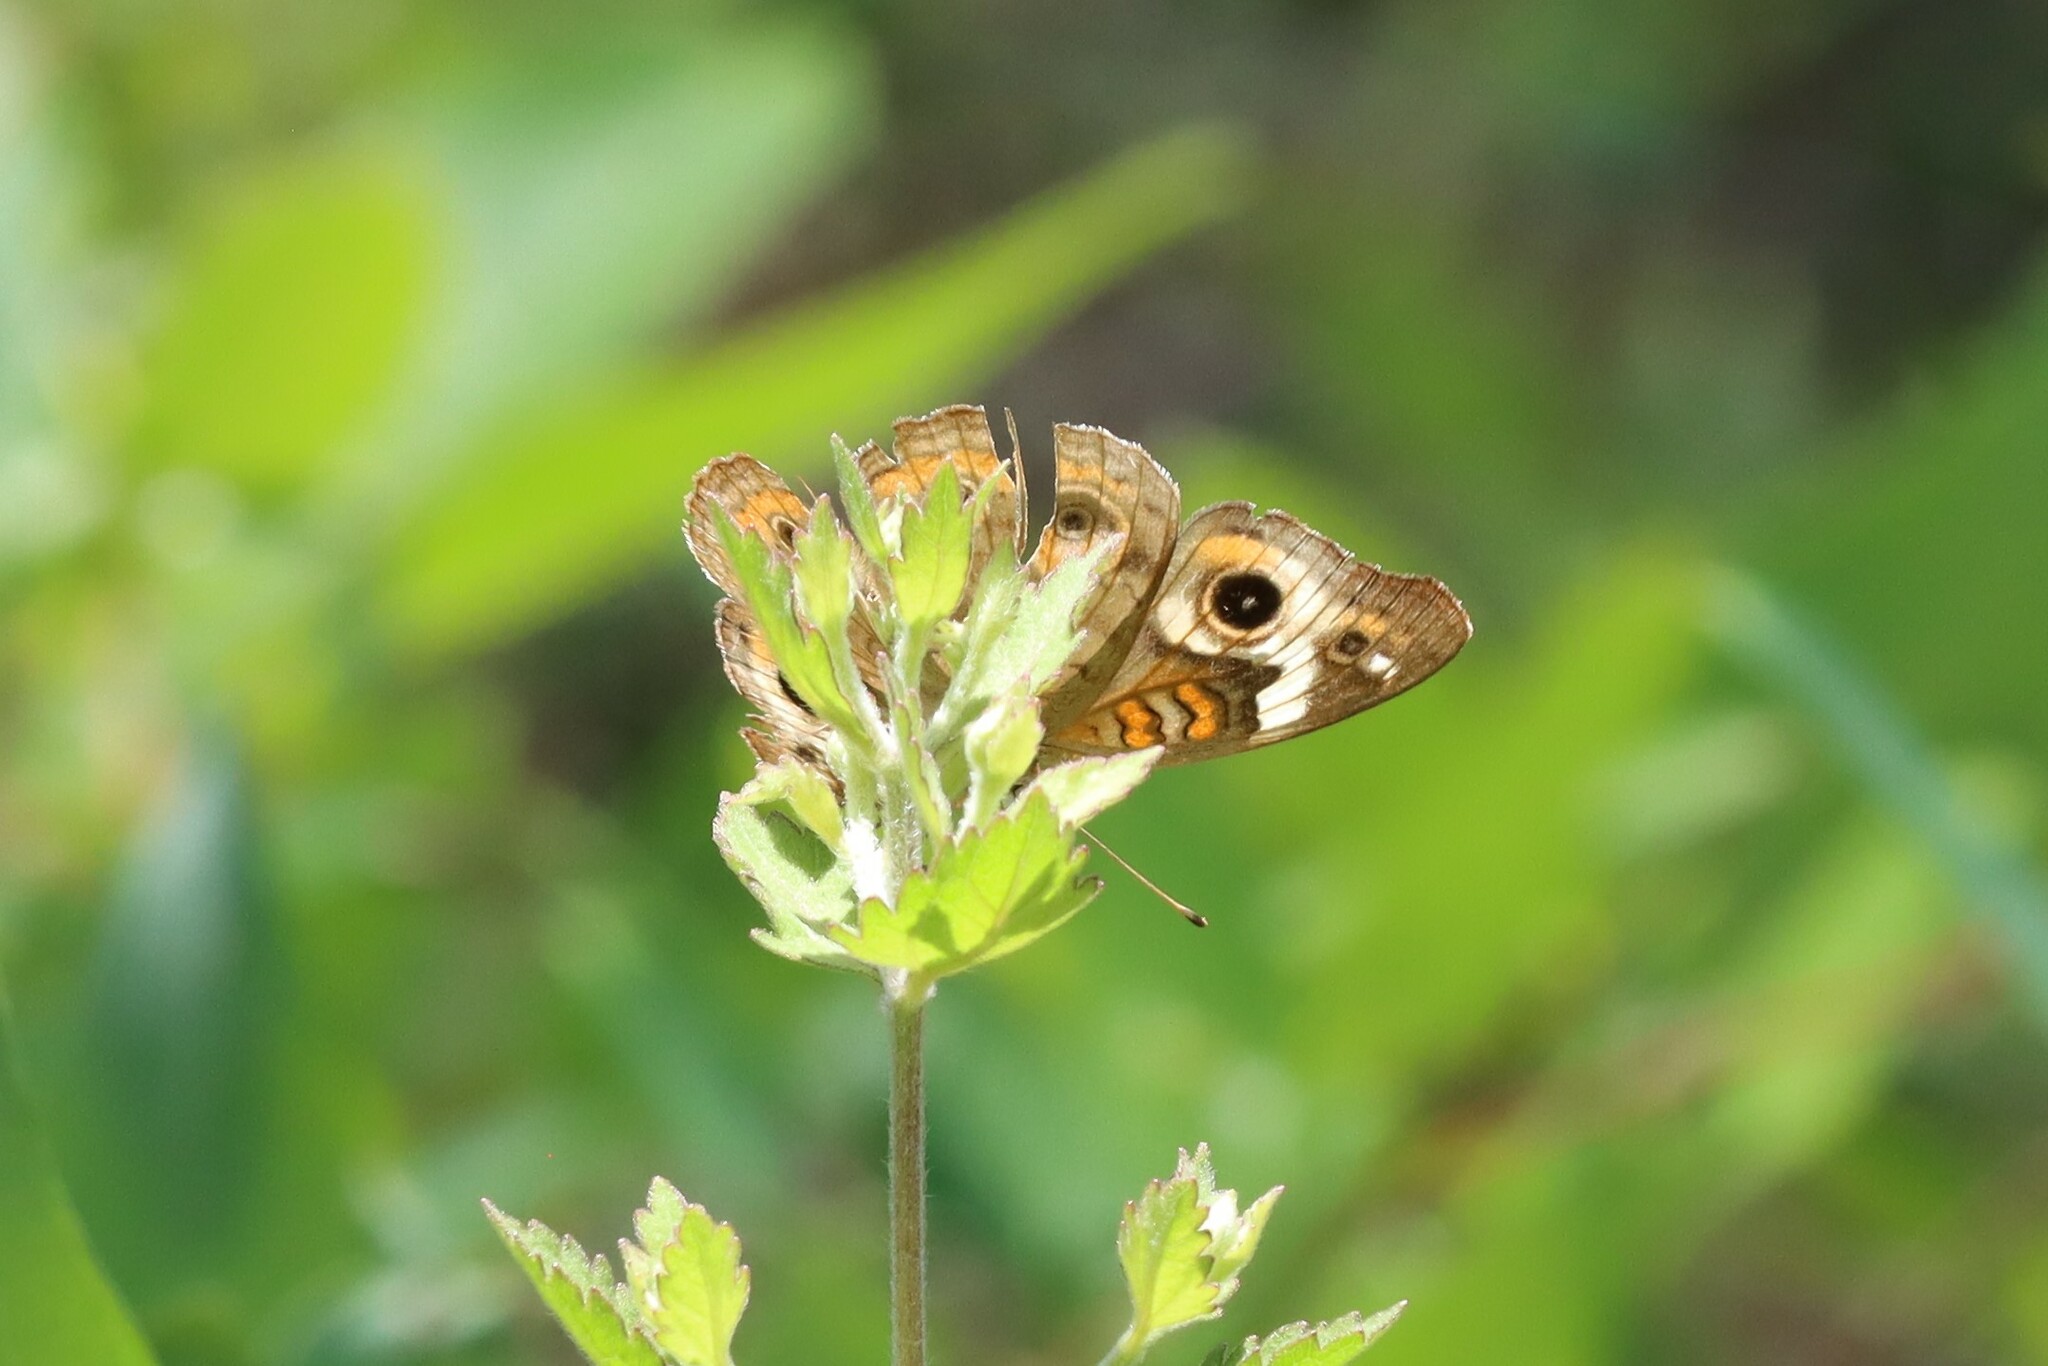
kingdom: Animalia
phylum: Arthropoda
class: Insecta
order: Lepidoptera
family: Nymphalidae
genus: Junonia
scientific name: Junonia coenia
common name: Common buckeye
